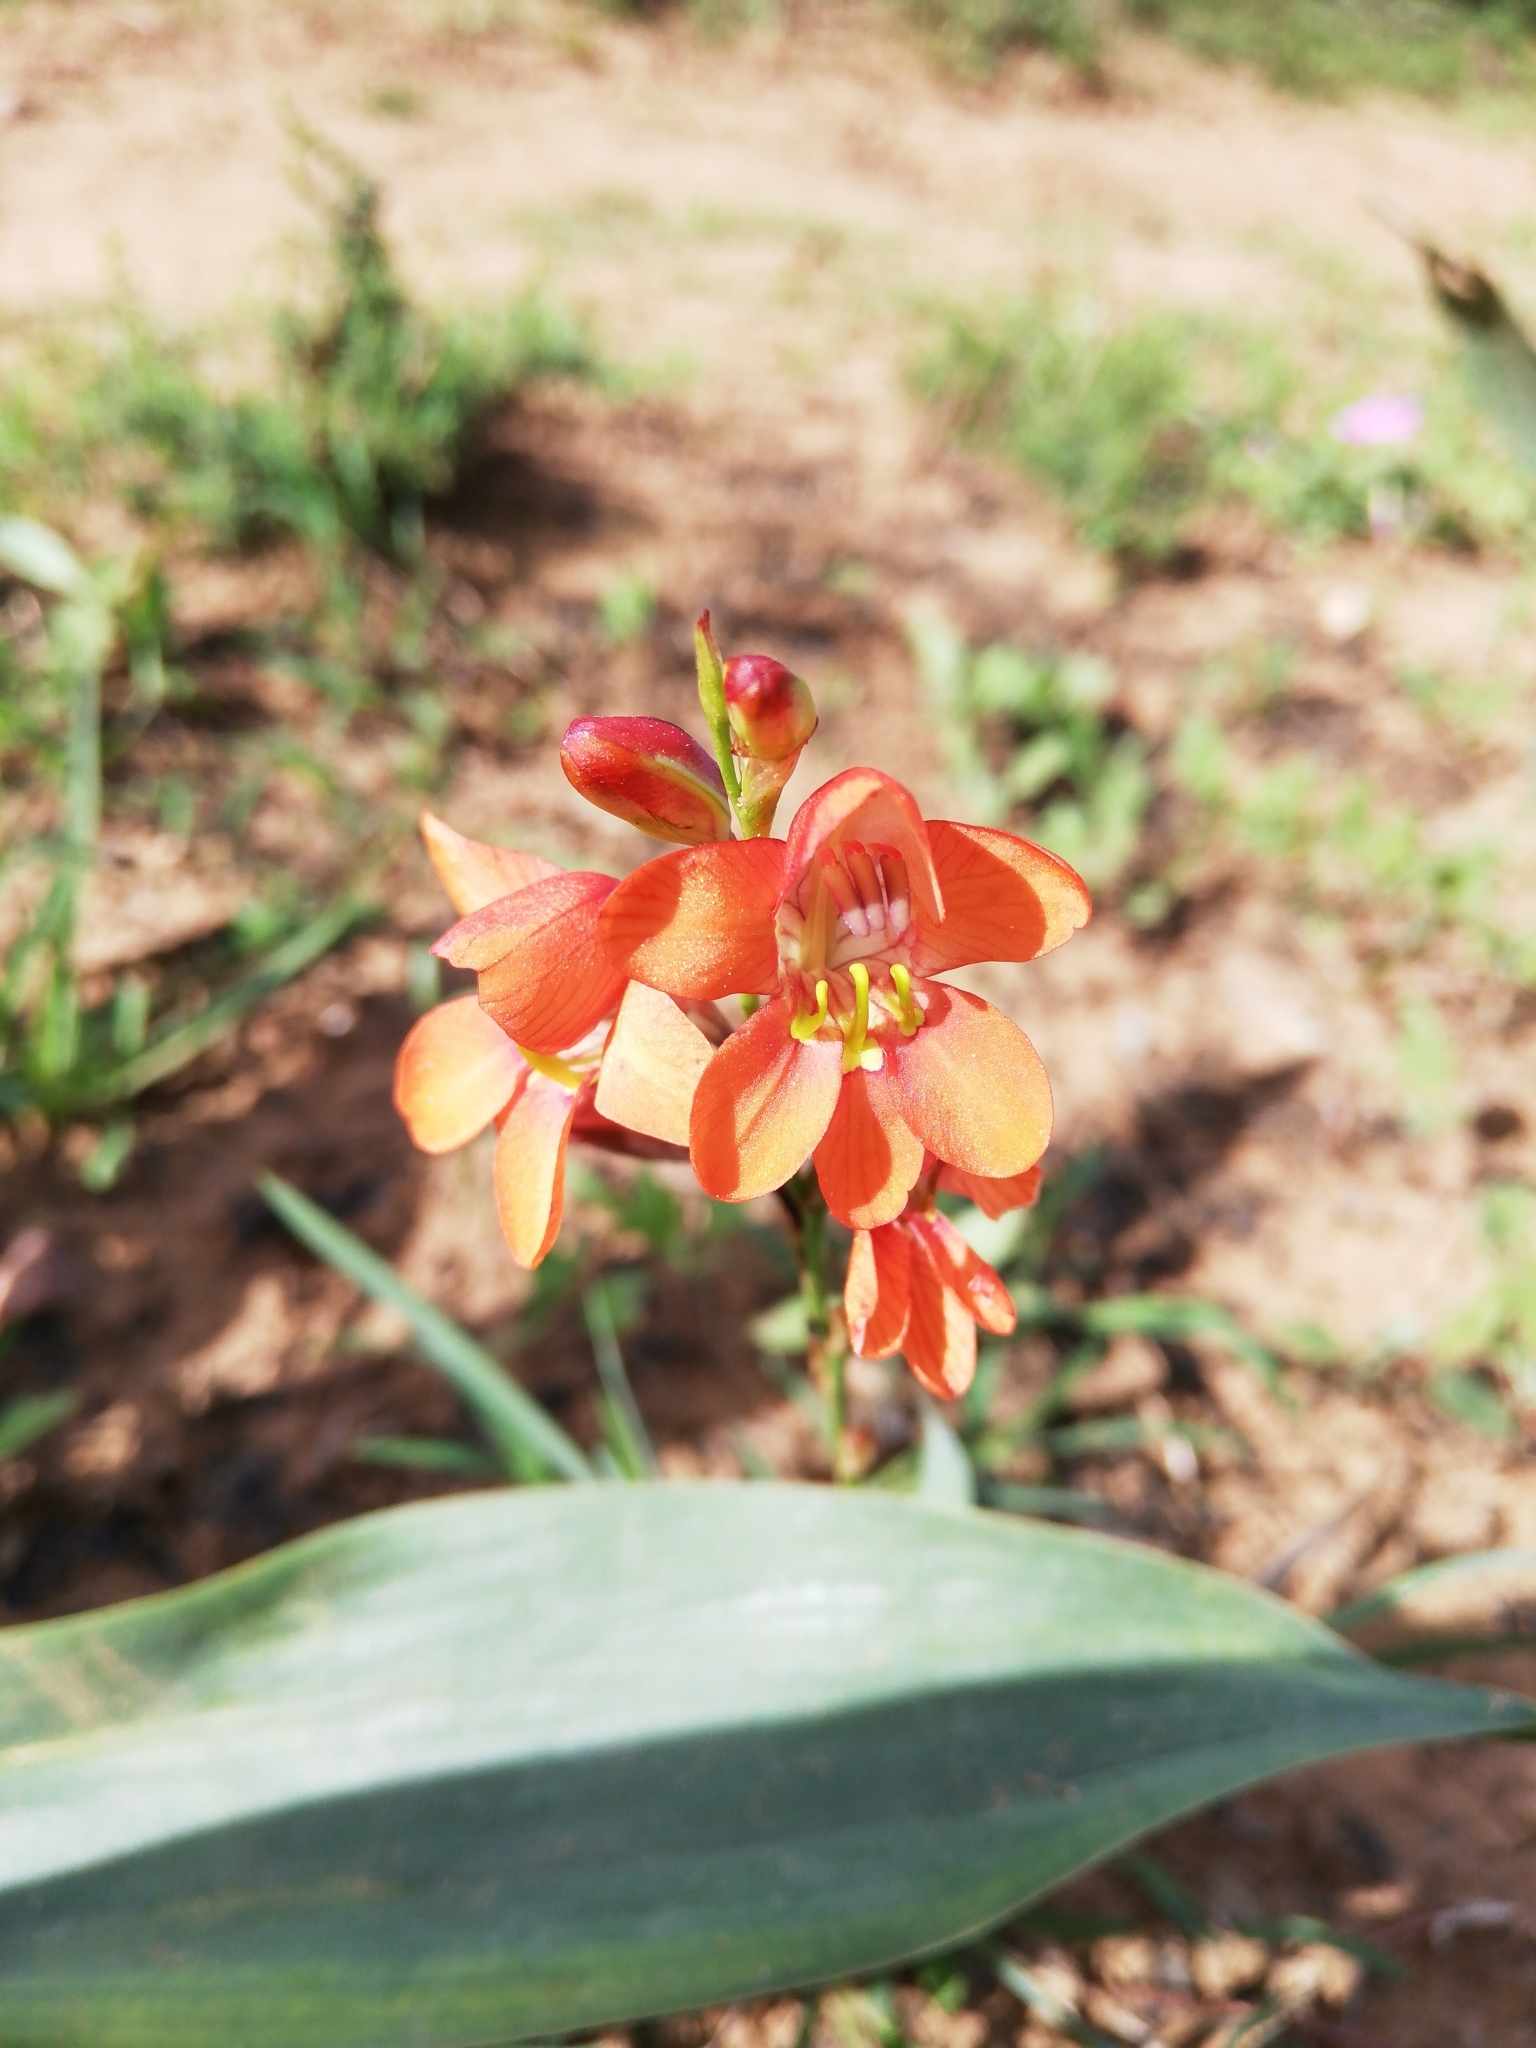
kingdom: Plantae
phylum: Tracheophyta
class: Liliopsida
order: Asparagales
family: Iridaceae
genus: Tritonia
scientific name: Tritonia laxifolia
